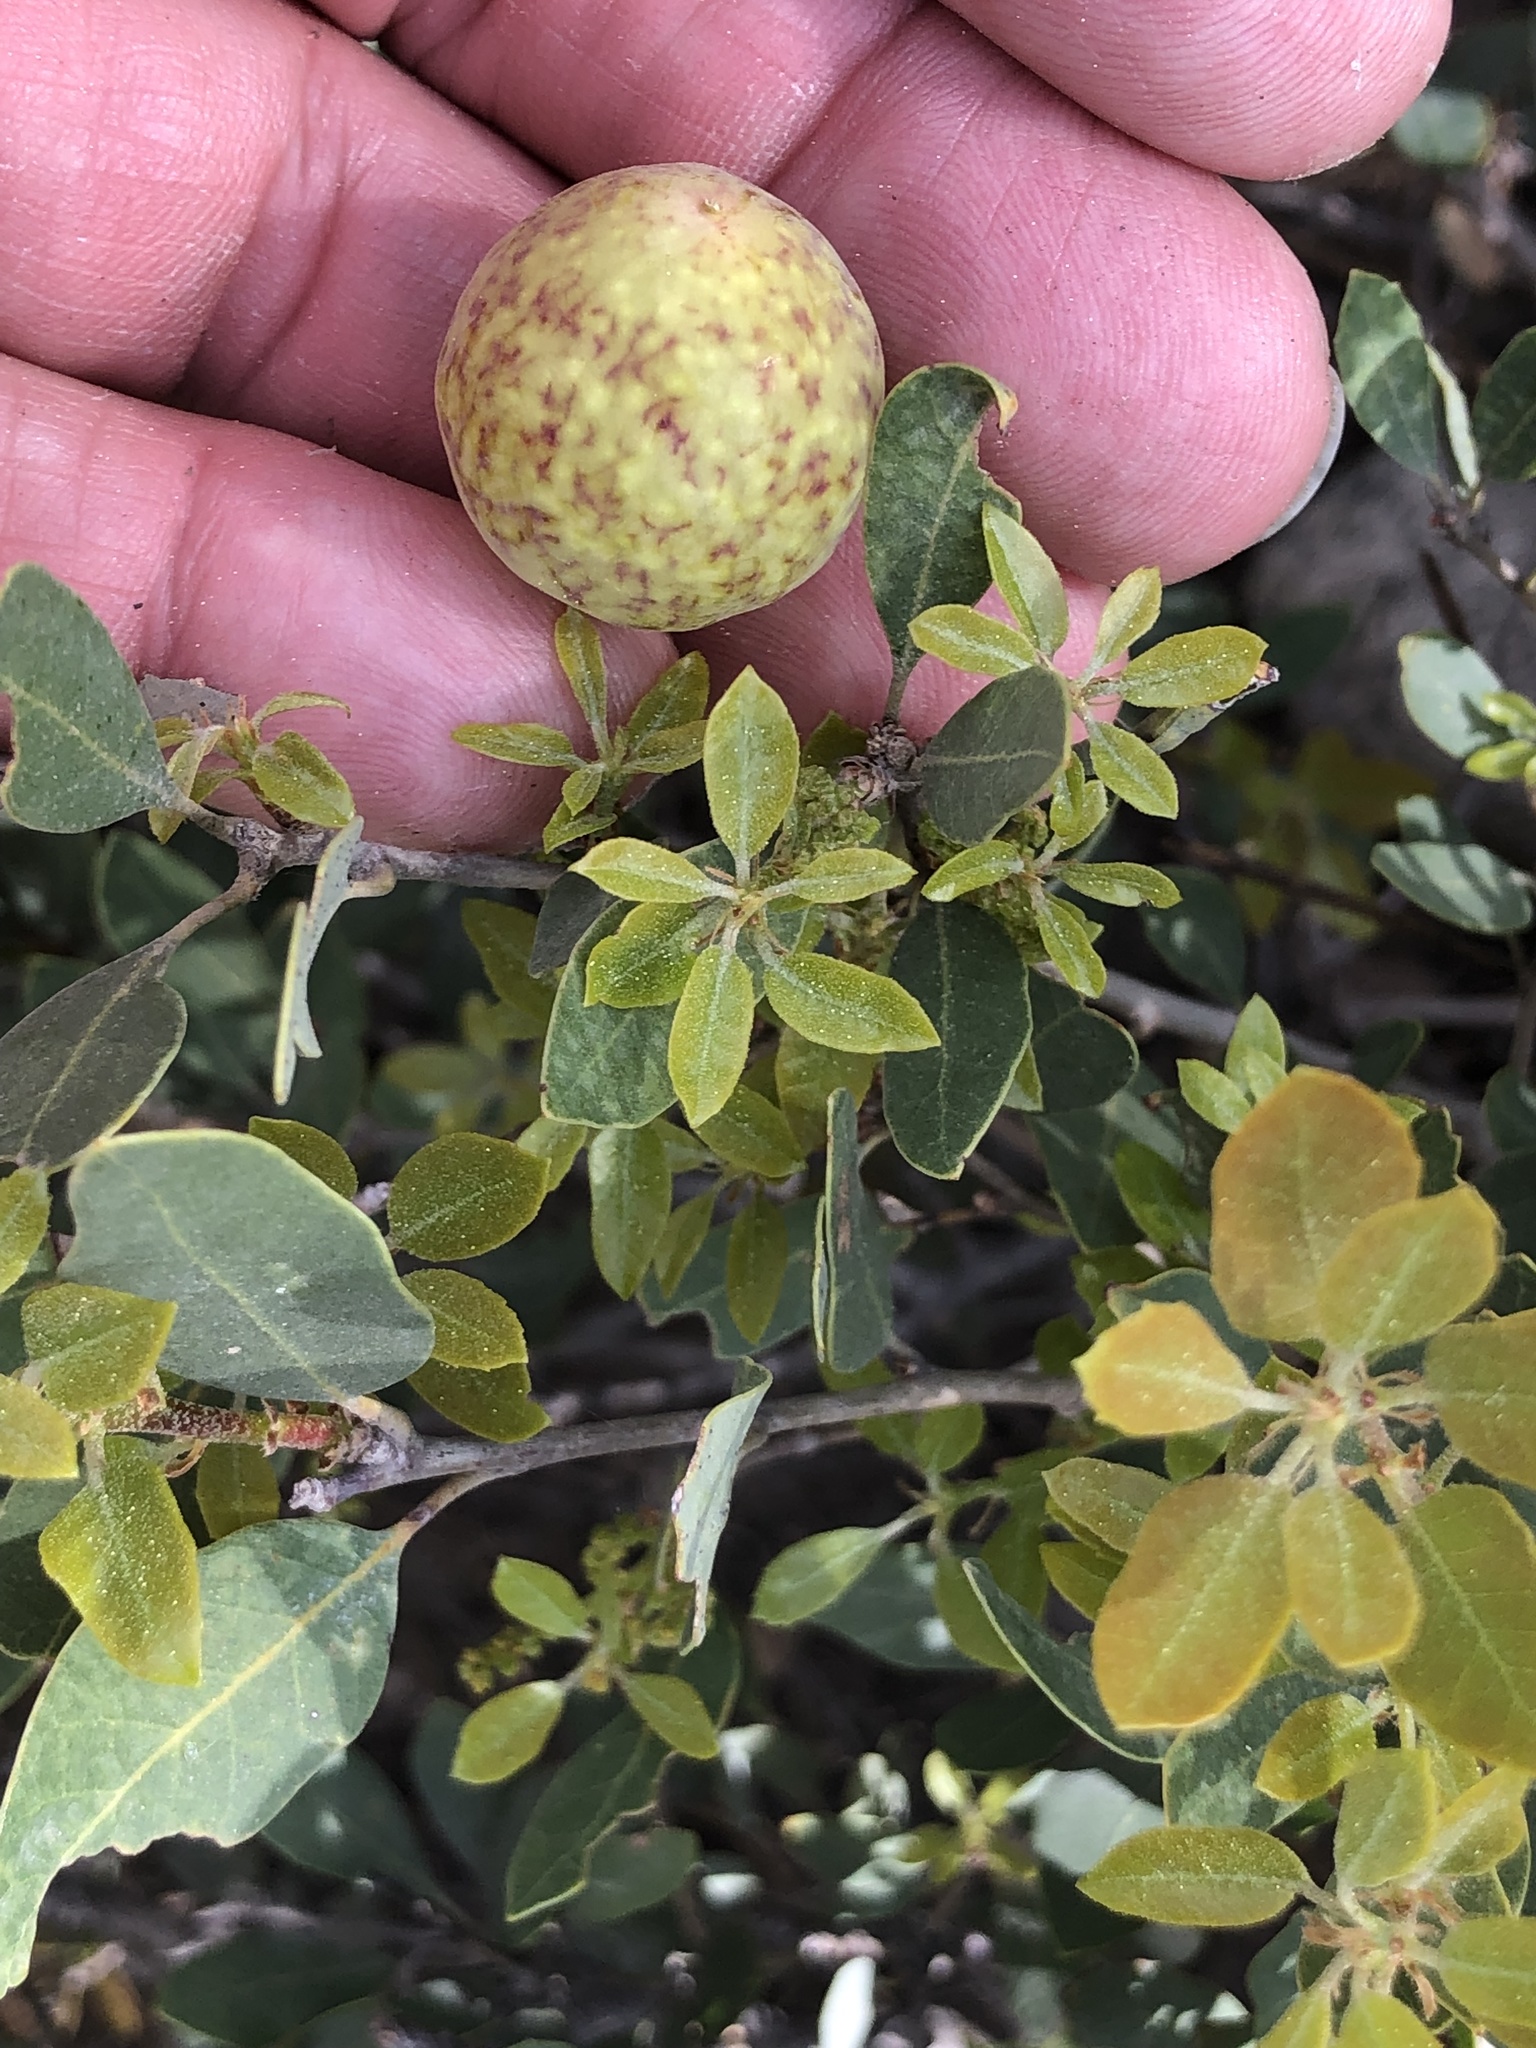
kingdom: Animalia
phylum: Arthropoda
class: Insecta
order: Hymenoptera
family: Cynipidae
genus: Andricus
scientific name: Andricus
